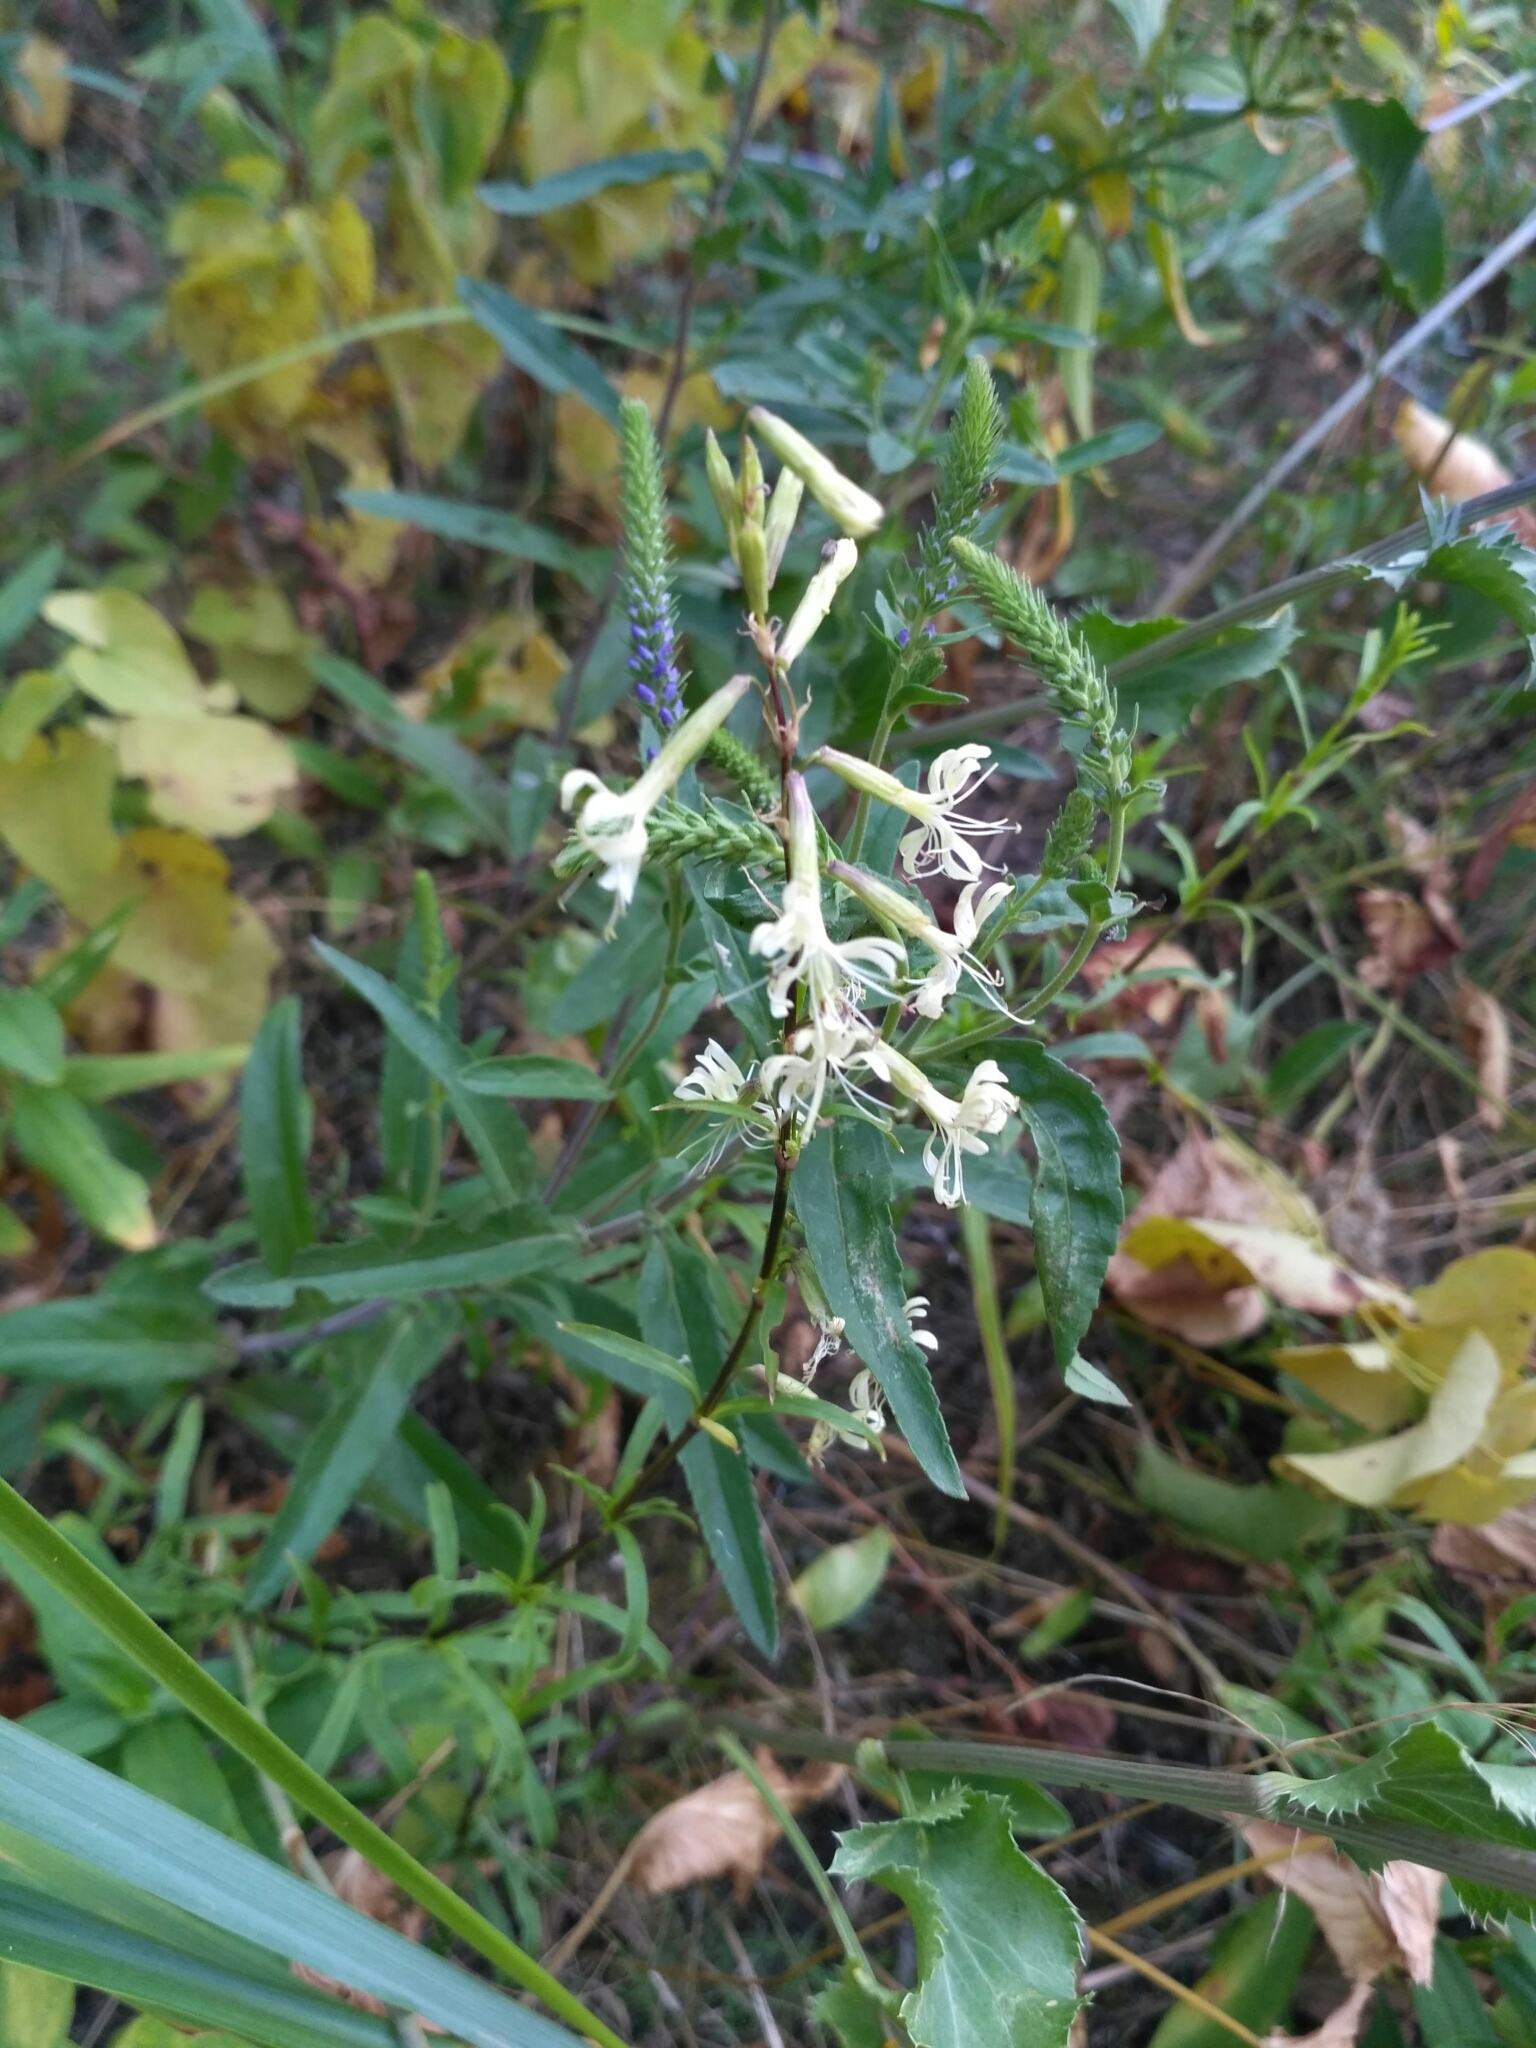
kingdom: Plantae
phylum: Tracheophyta
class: Magnoliopsida
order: Caryophyllales
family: Caryophyllaceae
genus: Silene
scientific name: Silene tatarica
